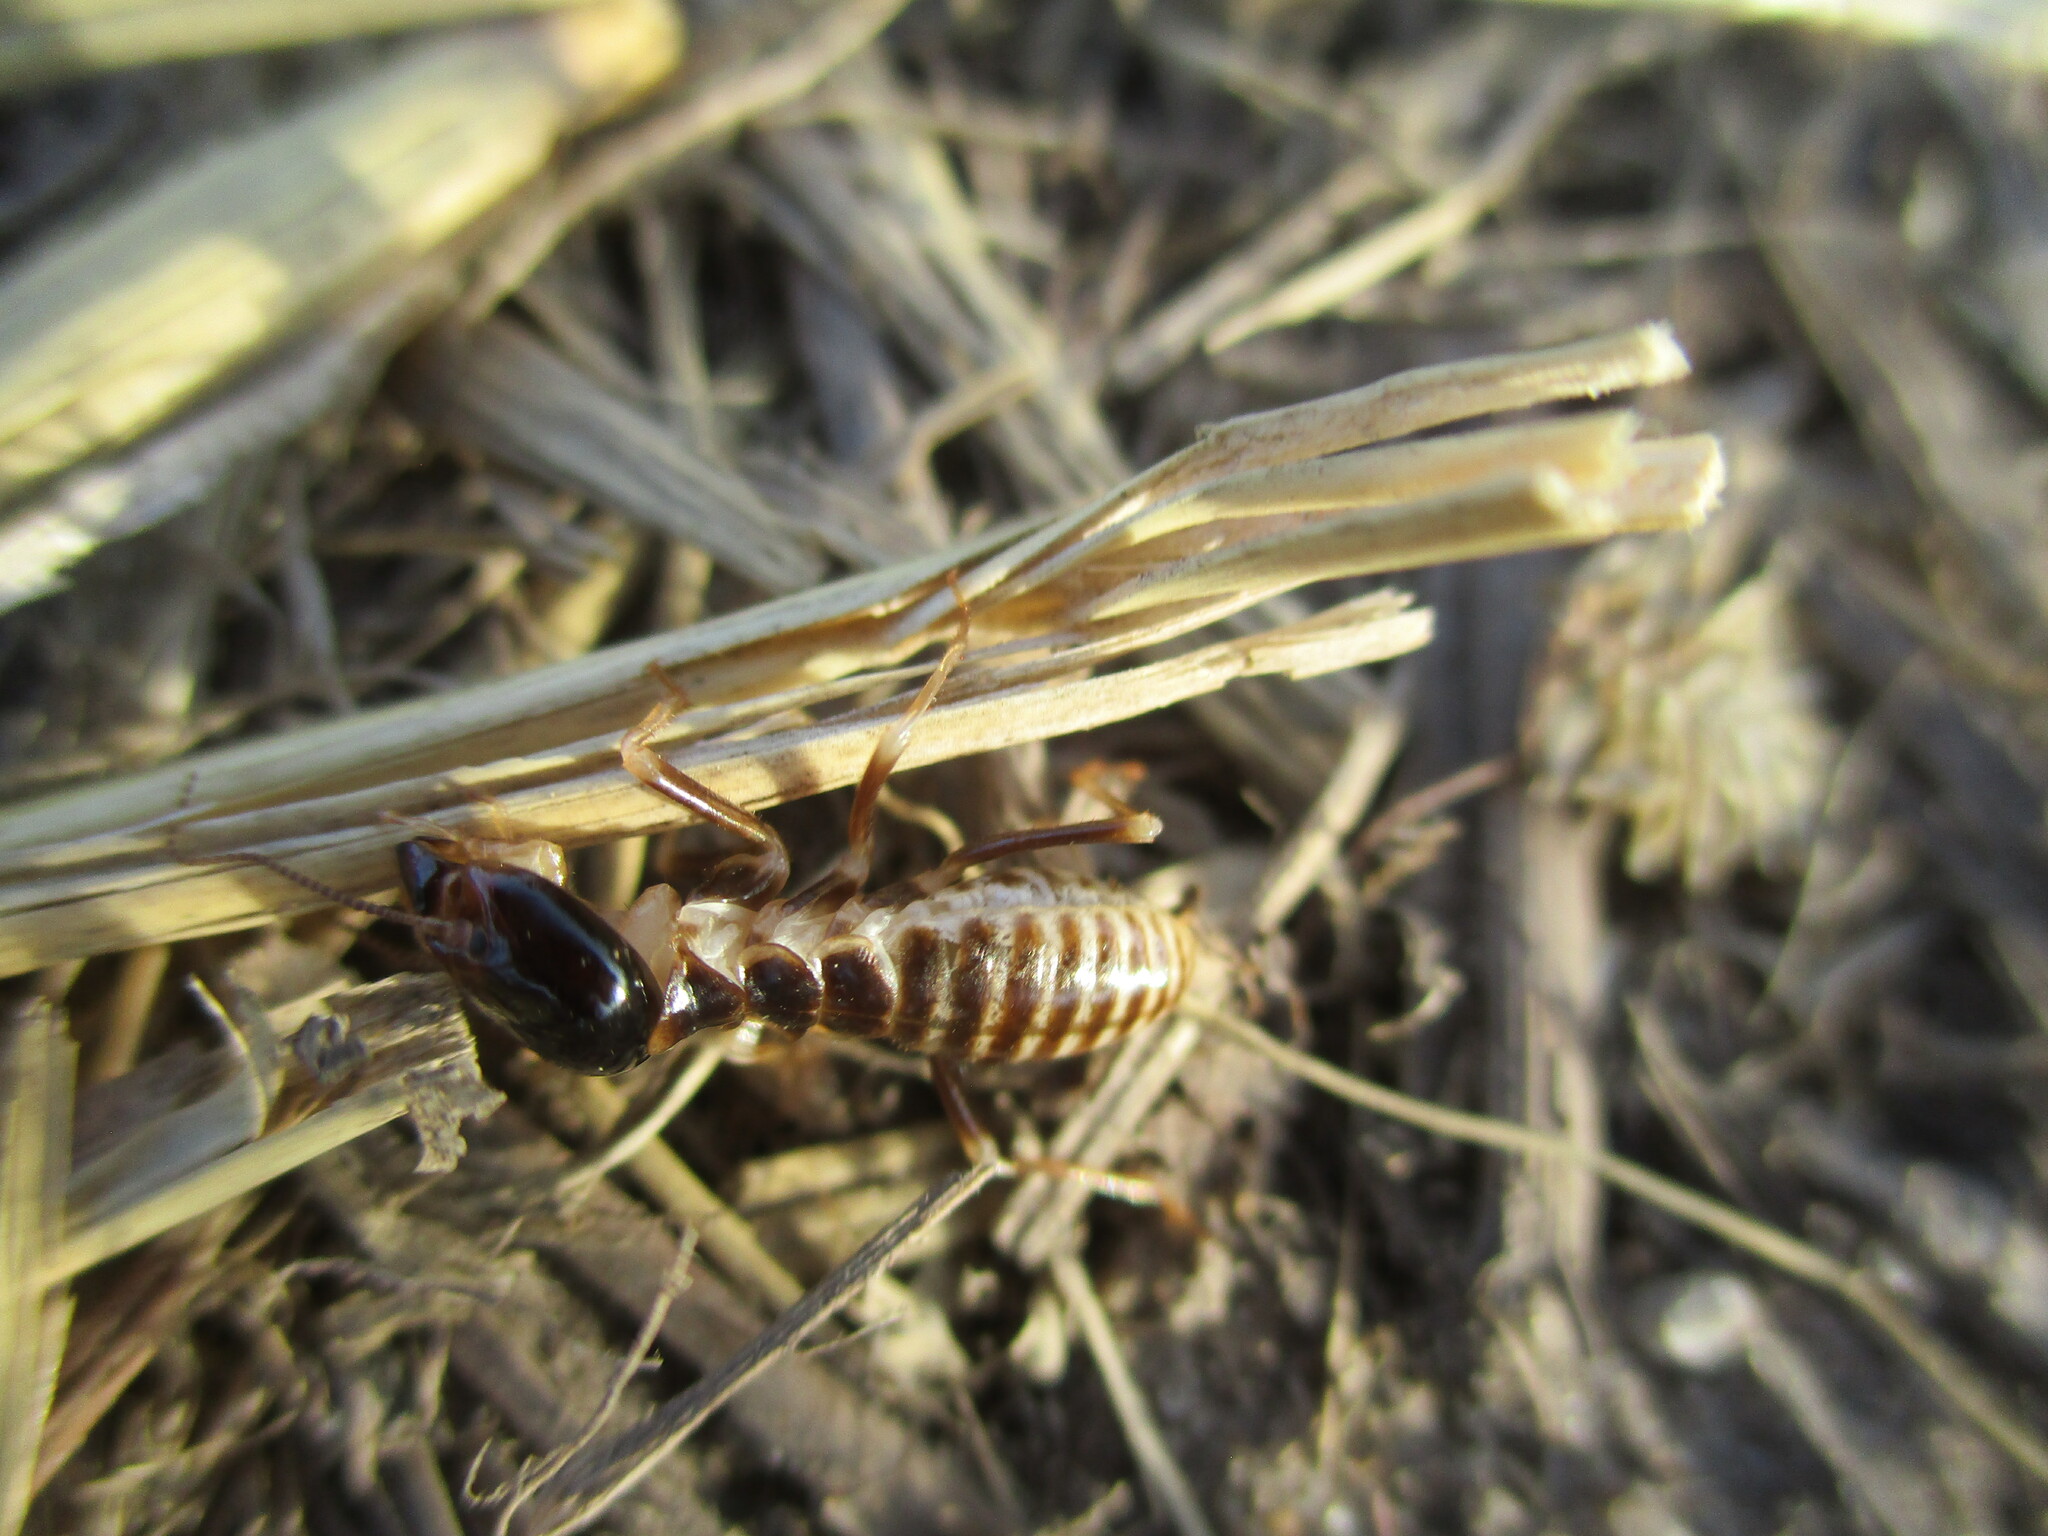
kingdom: Animalia
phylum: Arthropoda
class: Insecta
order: Blattodea
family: Hodotermitidae
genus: Hodotermes
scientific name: Hodotermes mossambicus
